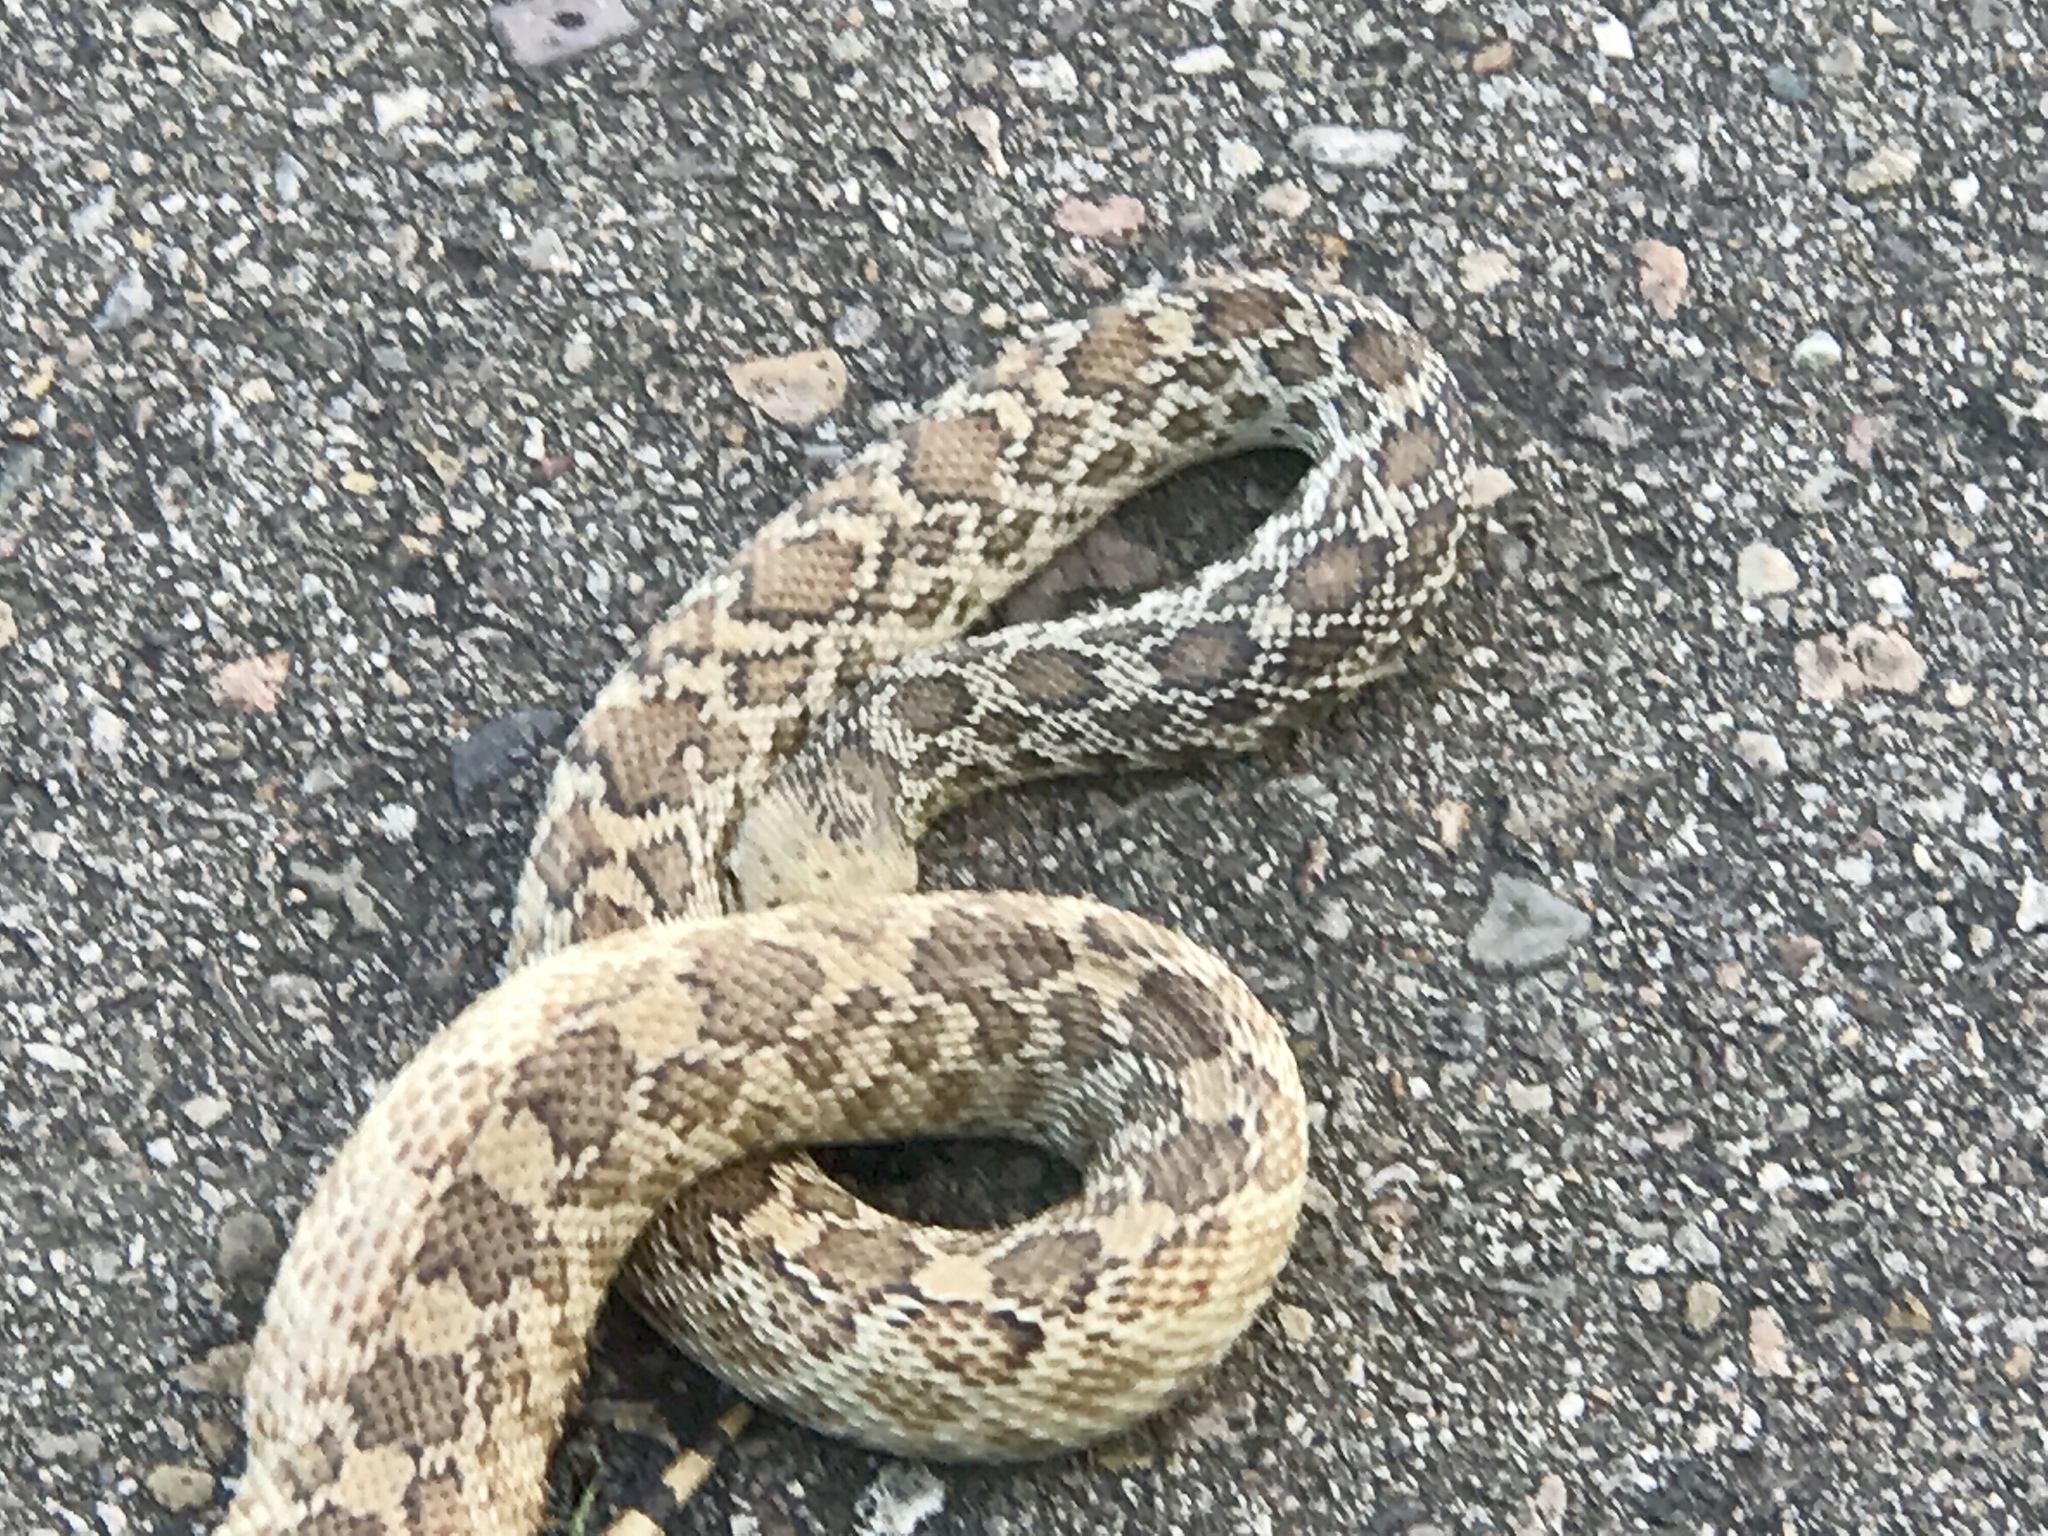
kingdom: Animalia
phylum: Chordata
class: Squamata
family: Colubridae
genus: Pituophis
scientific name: Pituophis catenifer
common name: Gopher snake
